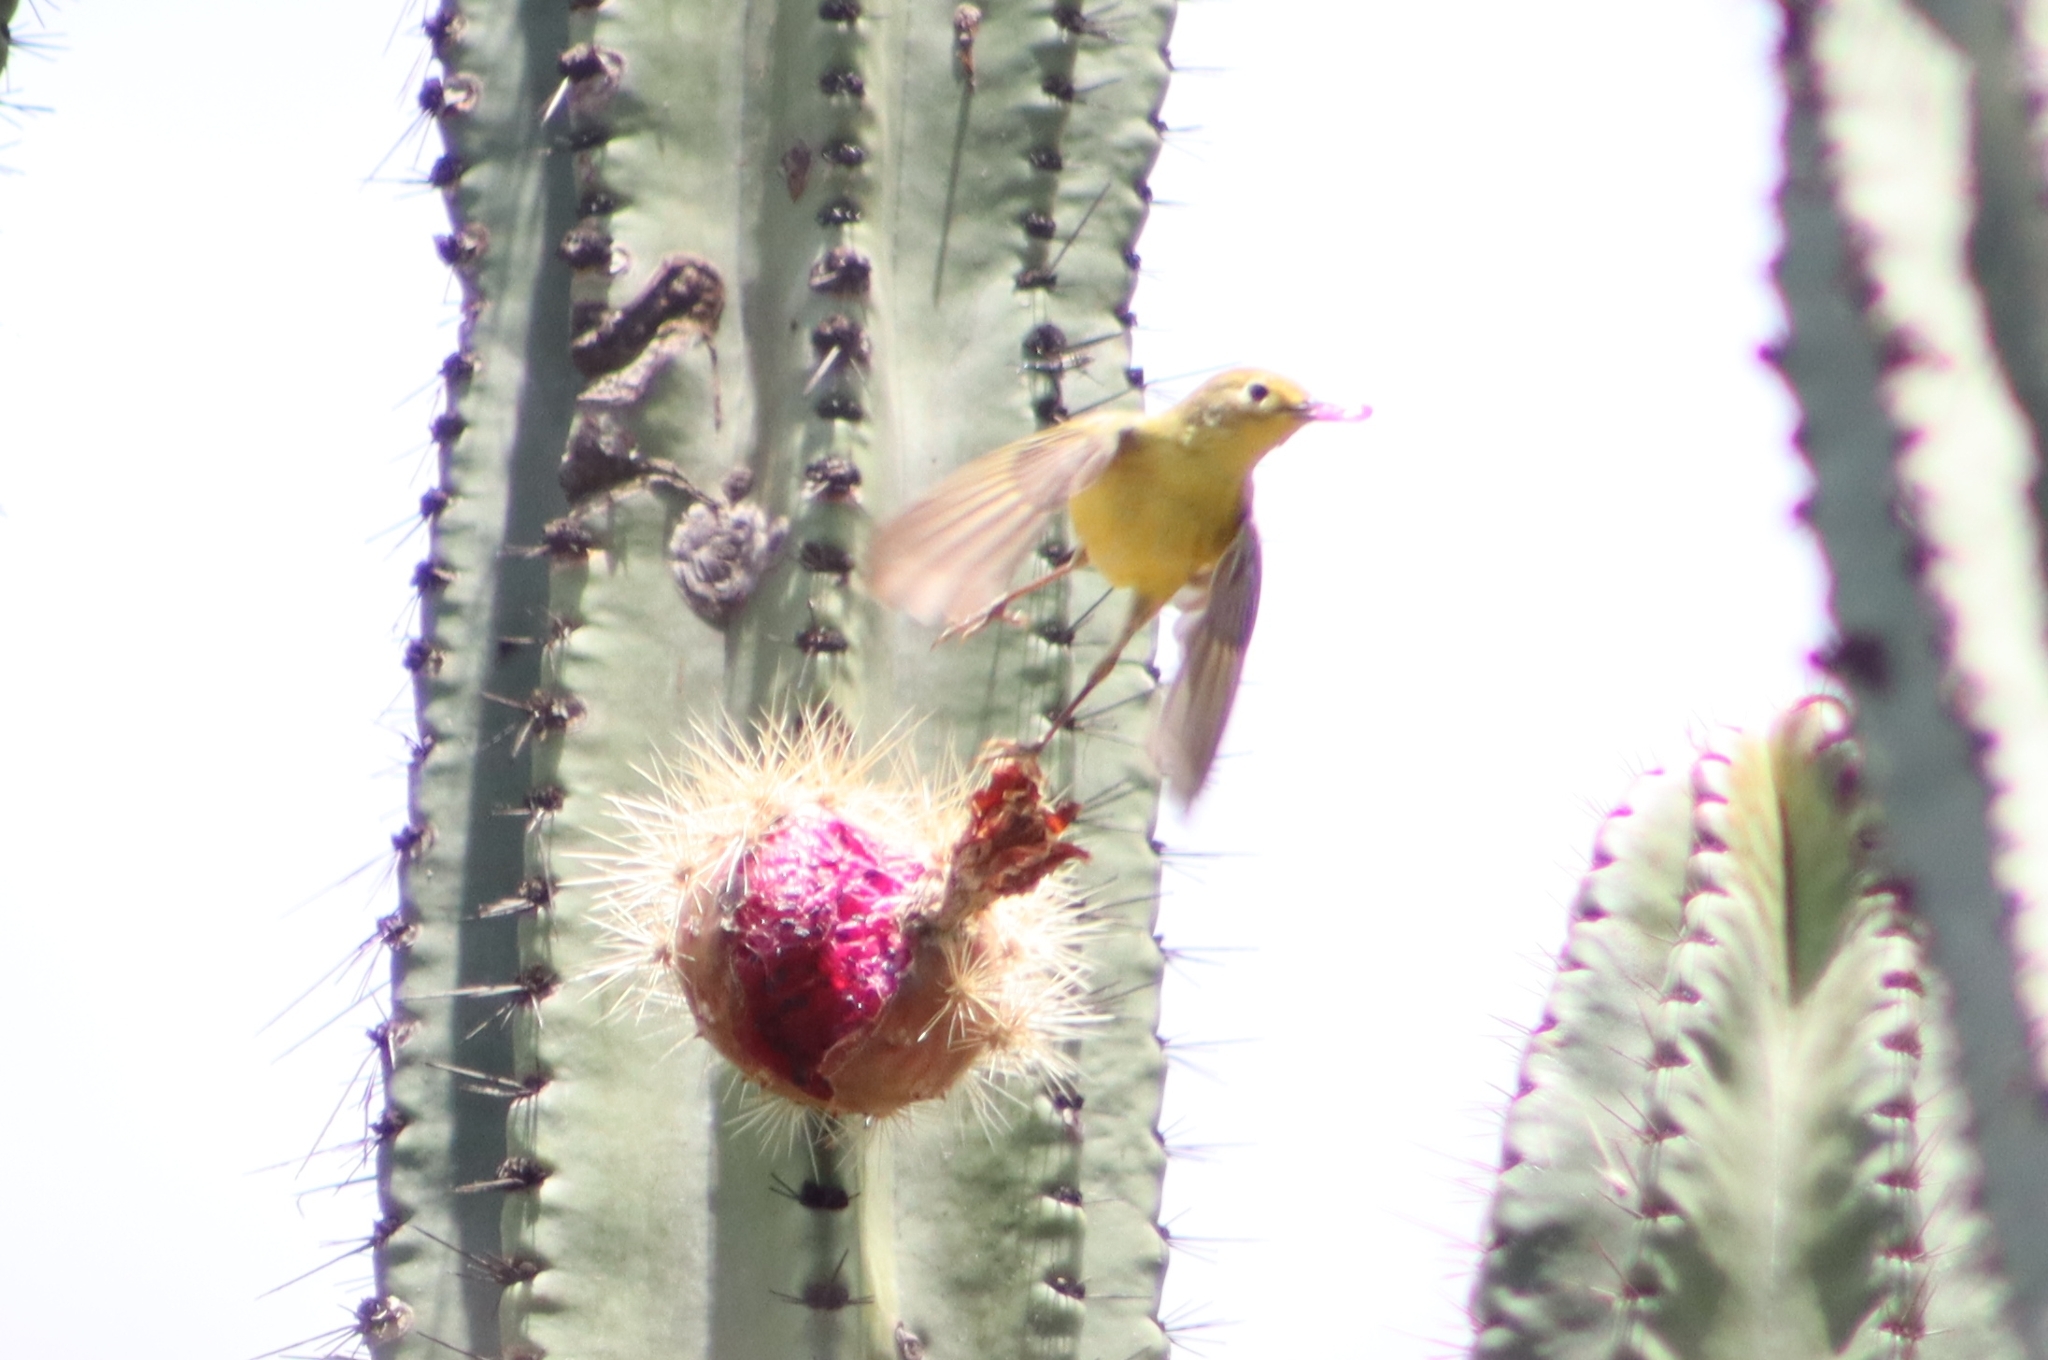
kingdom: Animalia
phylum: Chordata
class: Aves
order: Passeriformes
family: Cardinalidae
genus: Piranga
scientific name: Piranga flava
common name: Red tanager
